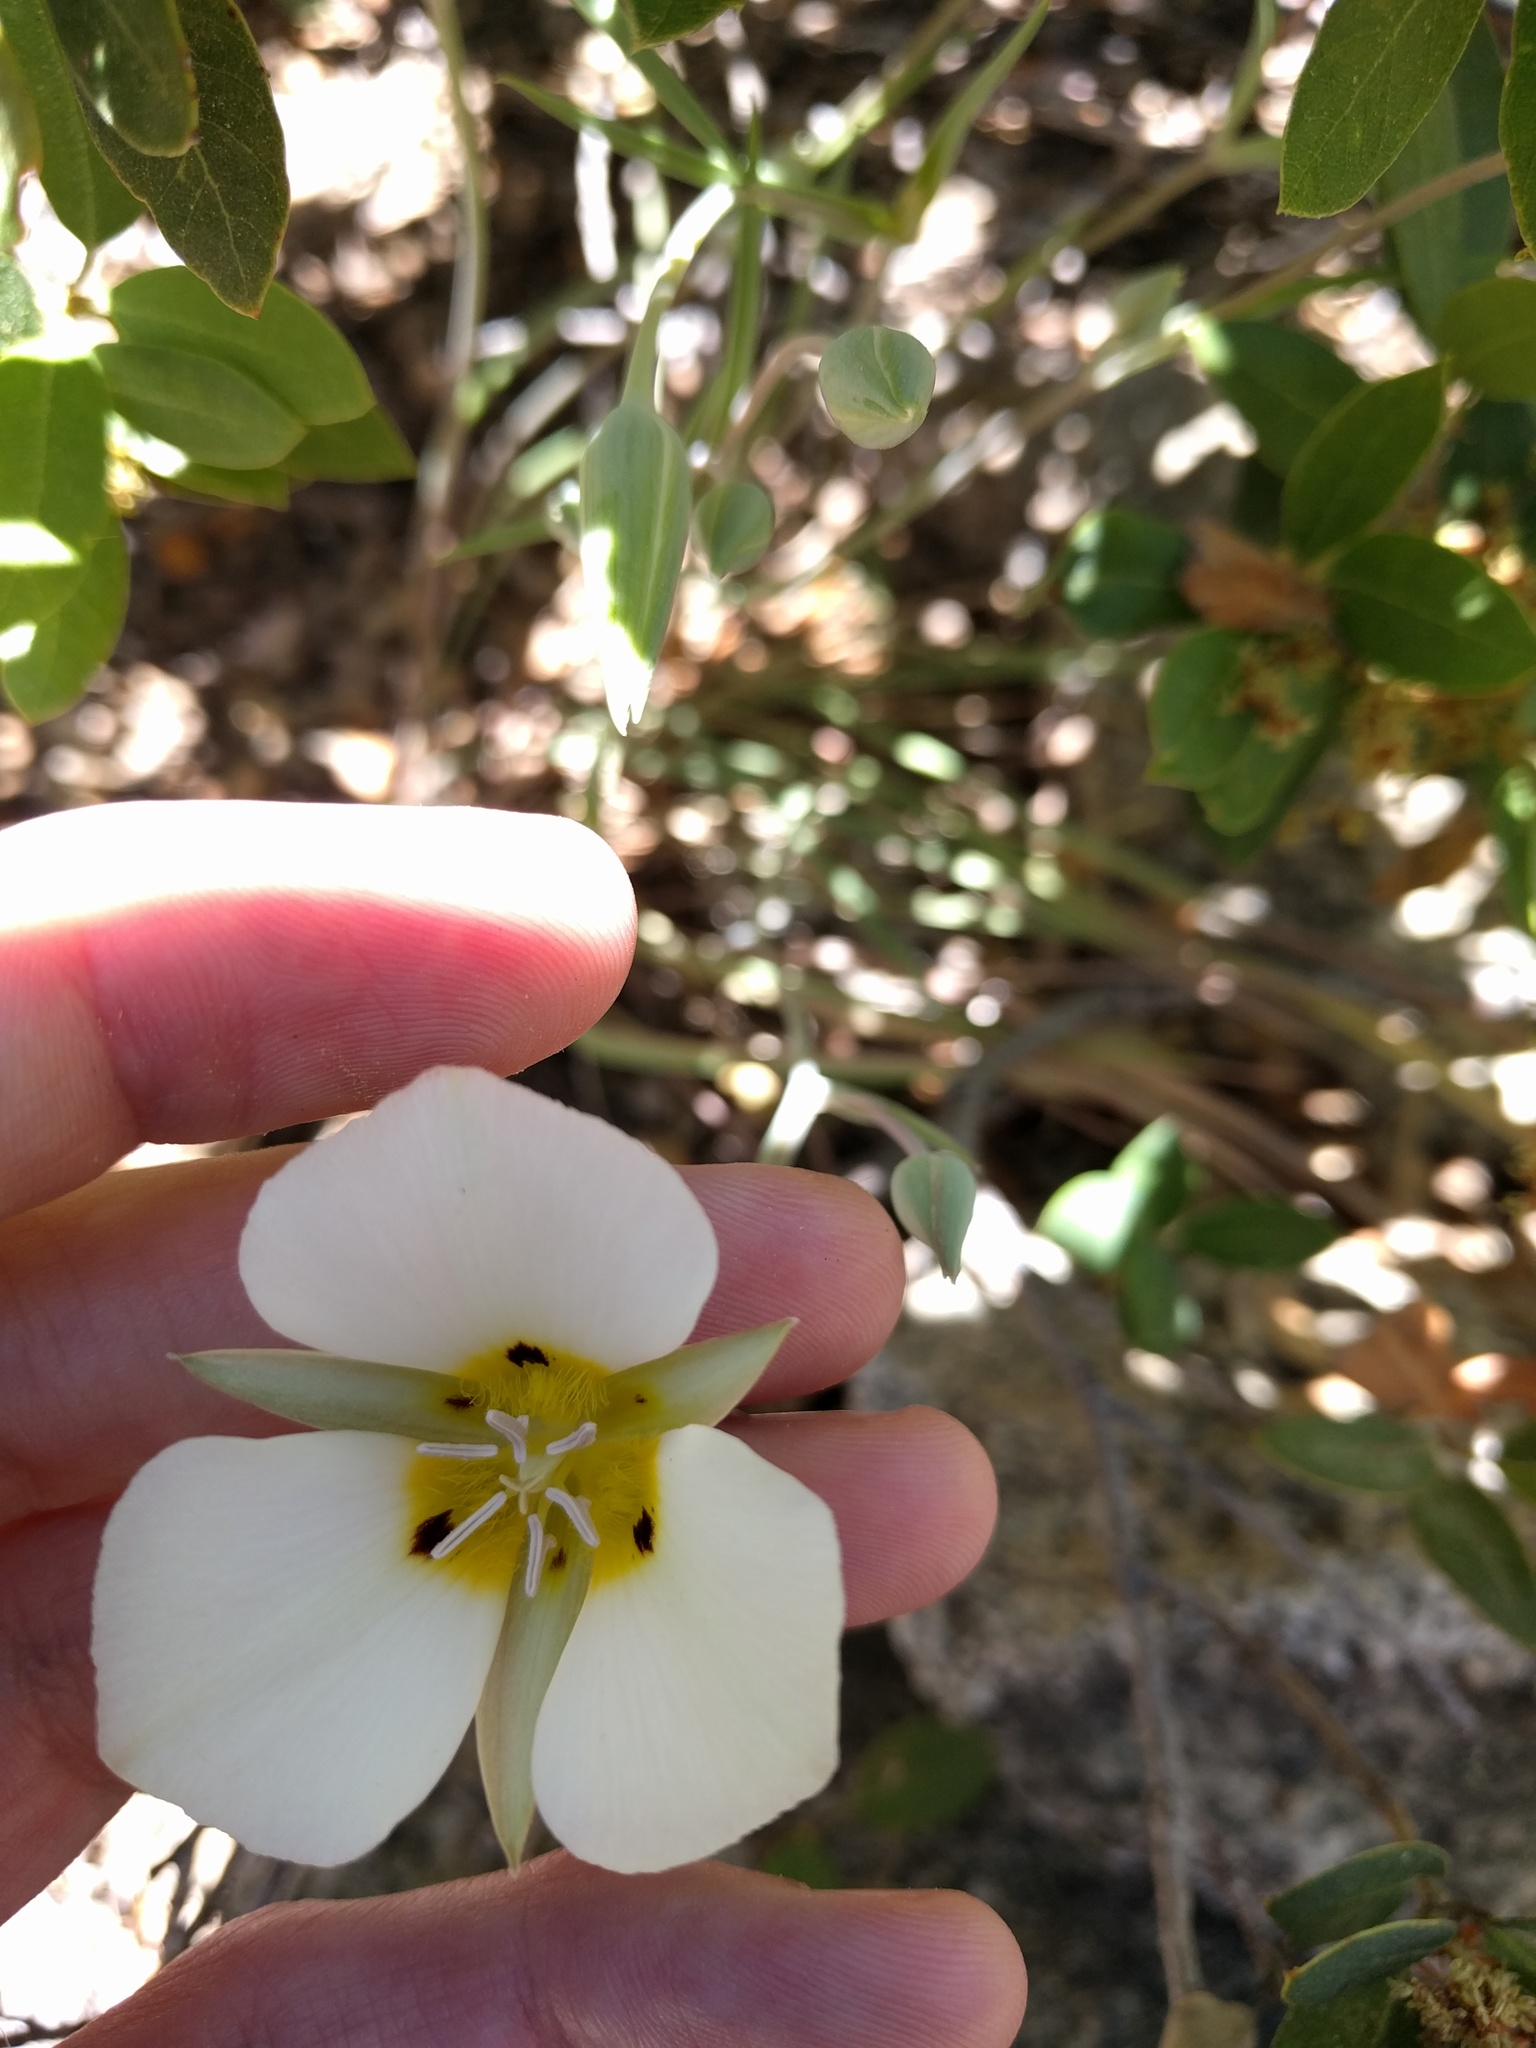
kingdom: Plantae
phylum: Tracheophyta
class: Liliopsida
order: Liliales
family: Liliaceae
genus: Calochortus
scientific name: Calochortus leichtlinii
